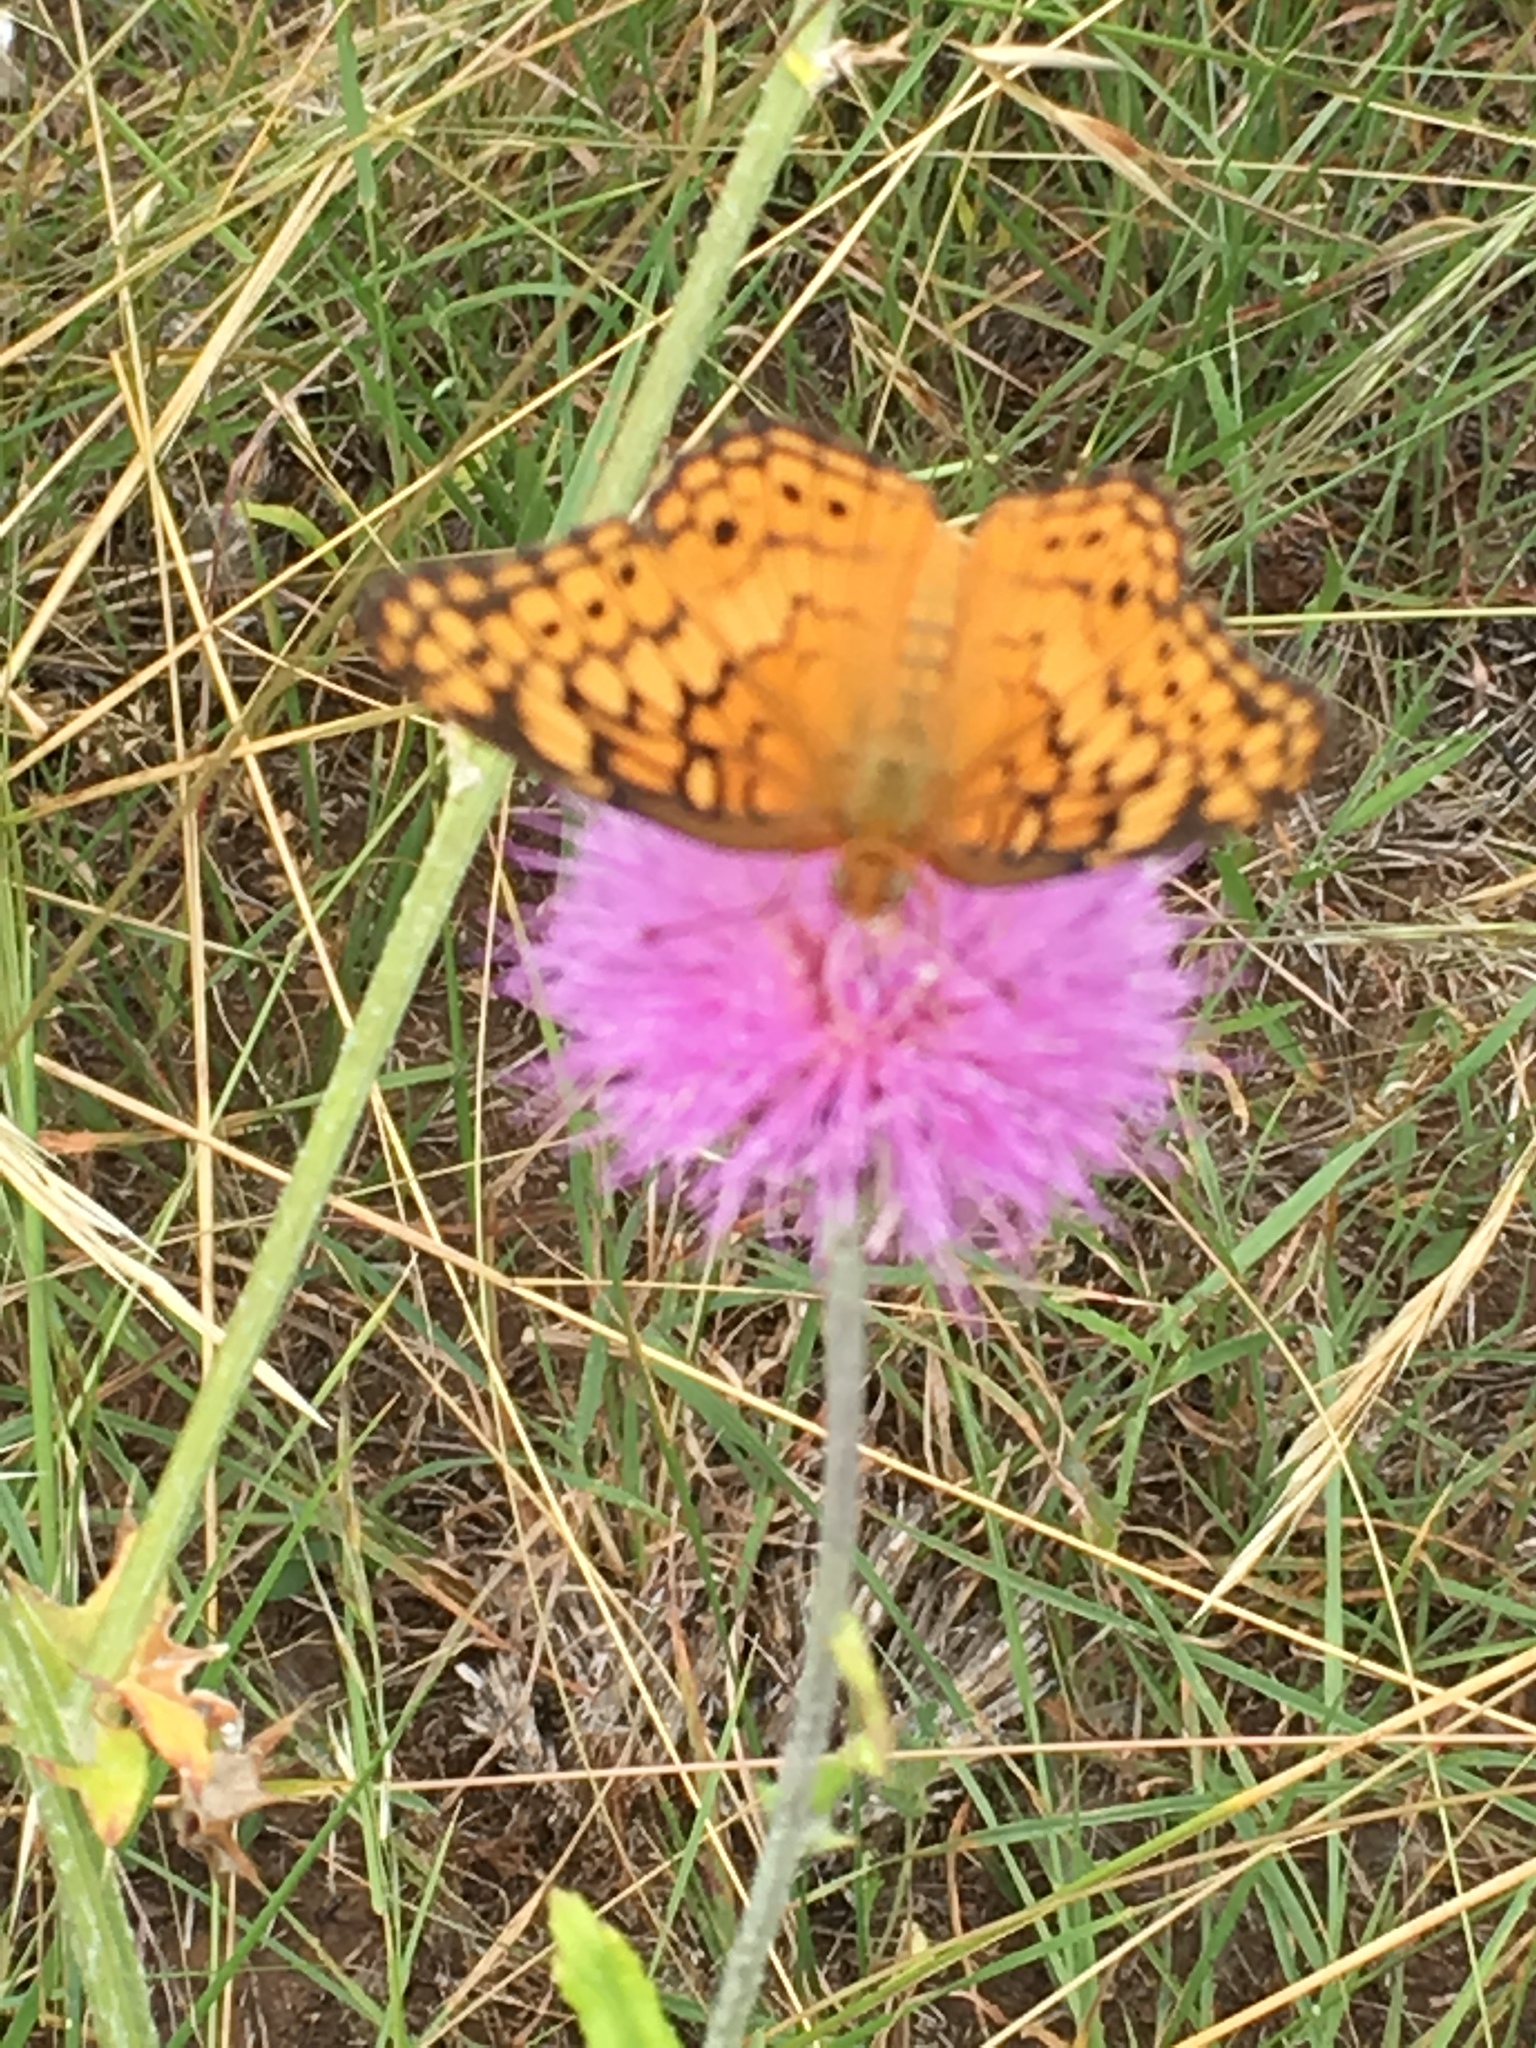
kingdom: Animalia
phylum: Arthropoda
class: Insecta
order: Lepidoptera
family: Nymphalidae
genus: Euptoieta
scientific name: Euptoieta claudia
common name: Variegated fritillary
